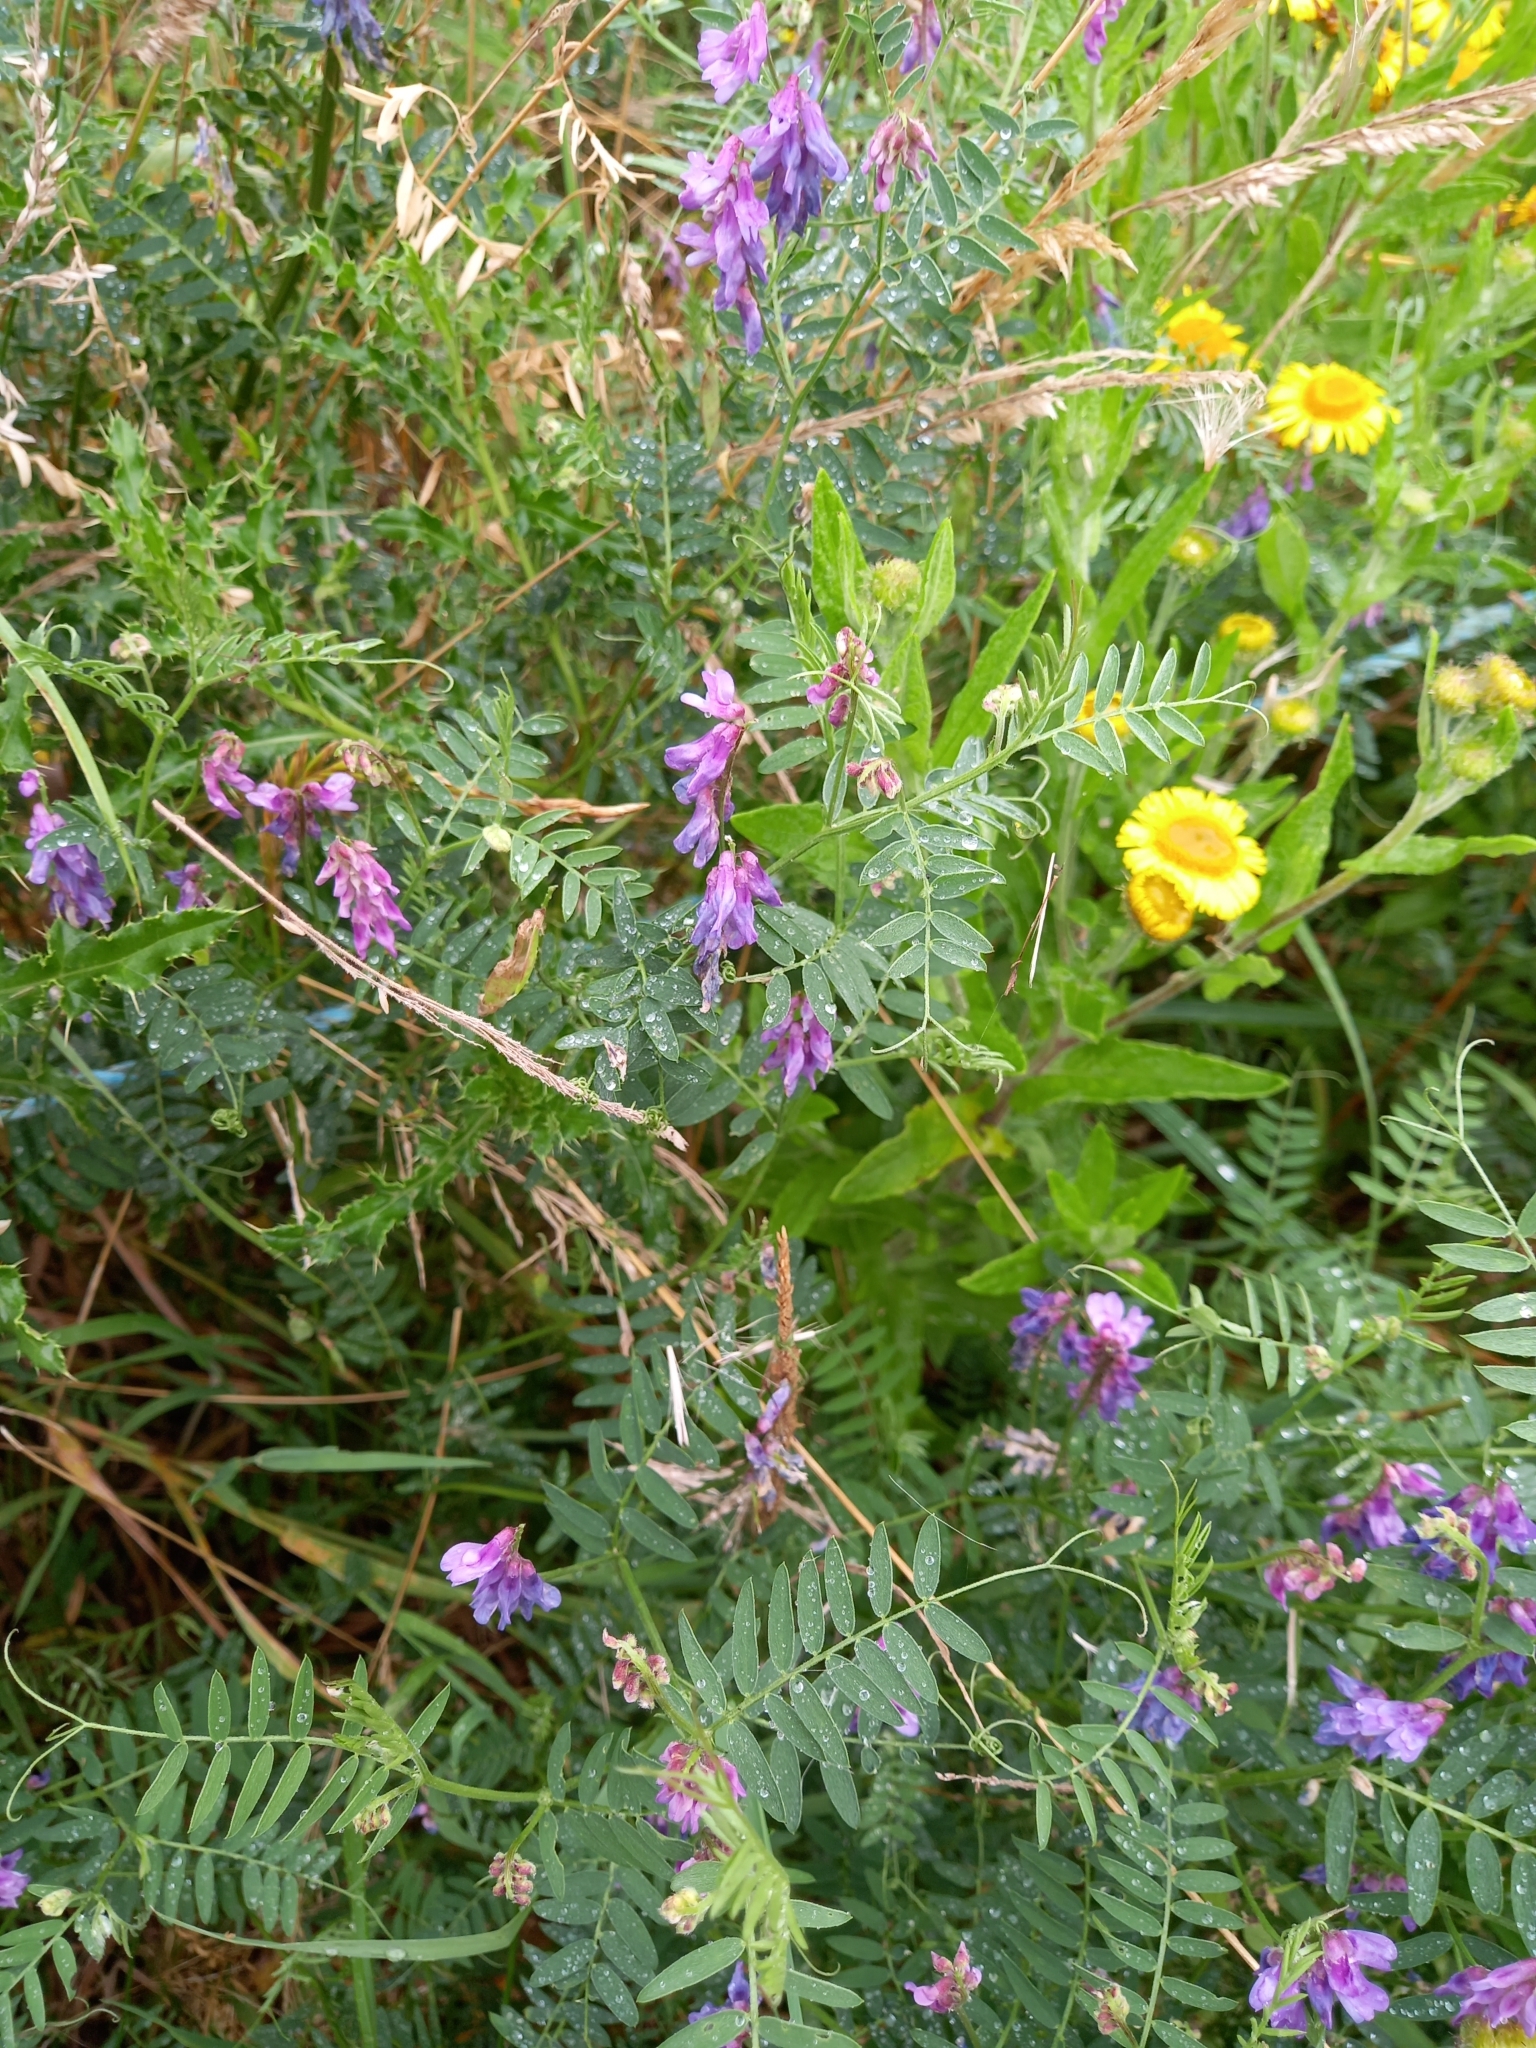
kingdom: Plantae
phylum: Tracheophyta
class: Magnoliopsida
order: Fabales
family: Fabaceae
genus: Vicia
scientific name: Vicia cracca
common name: Bird vetch
